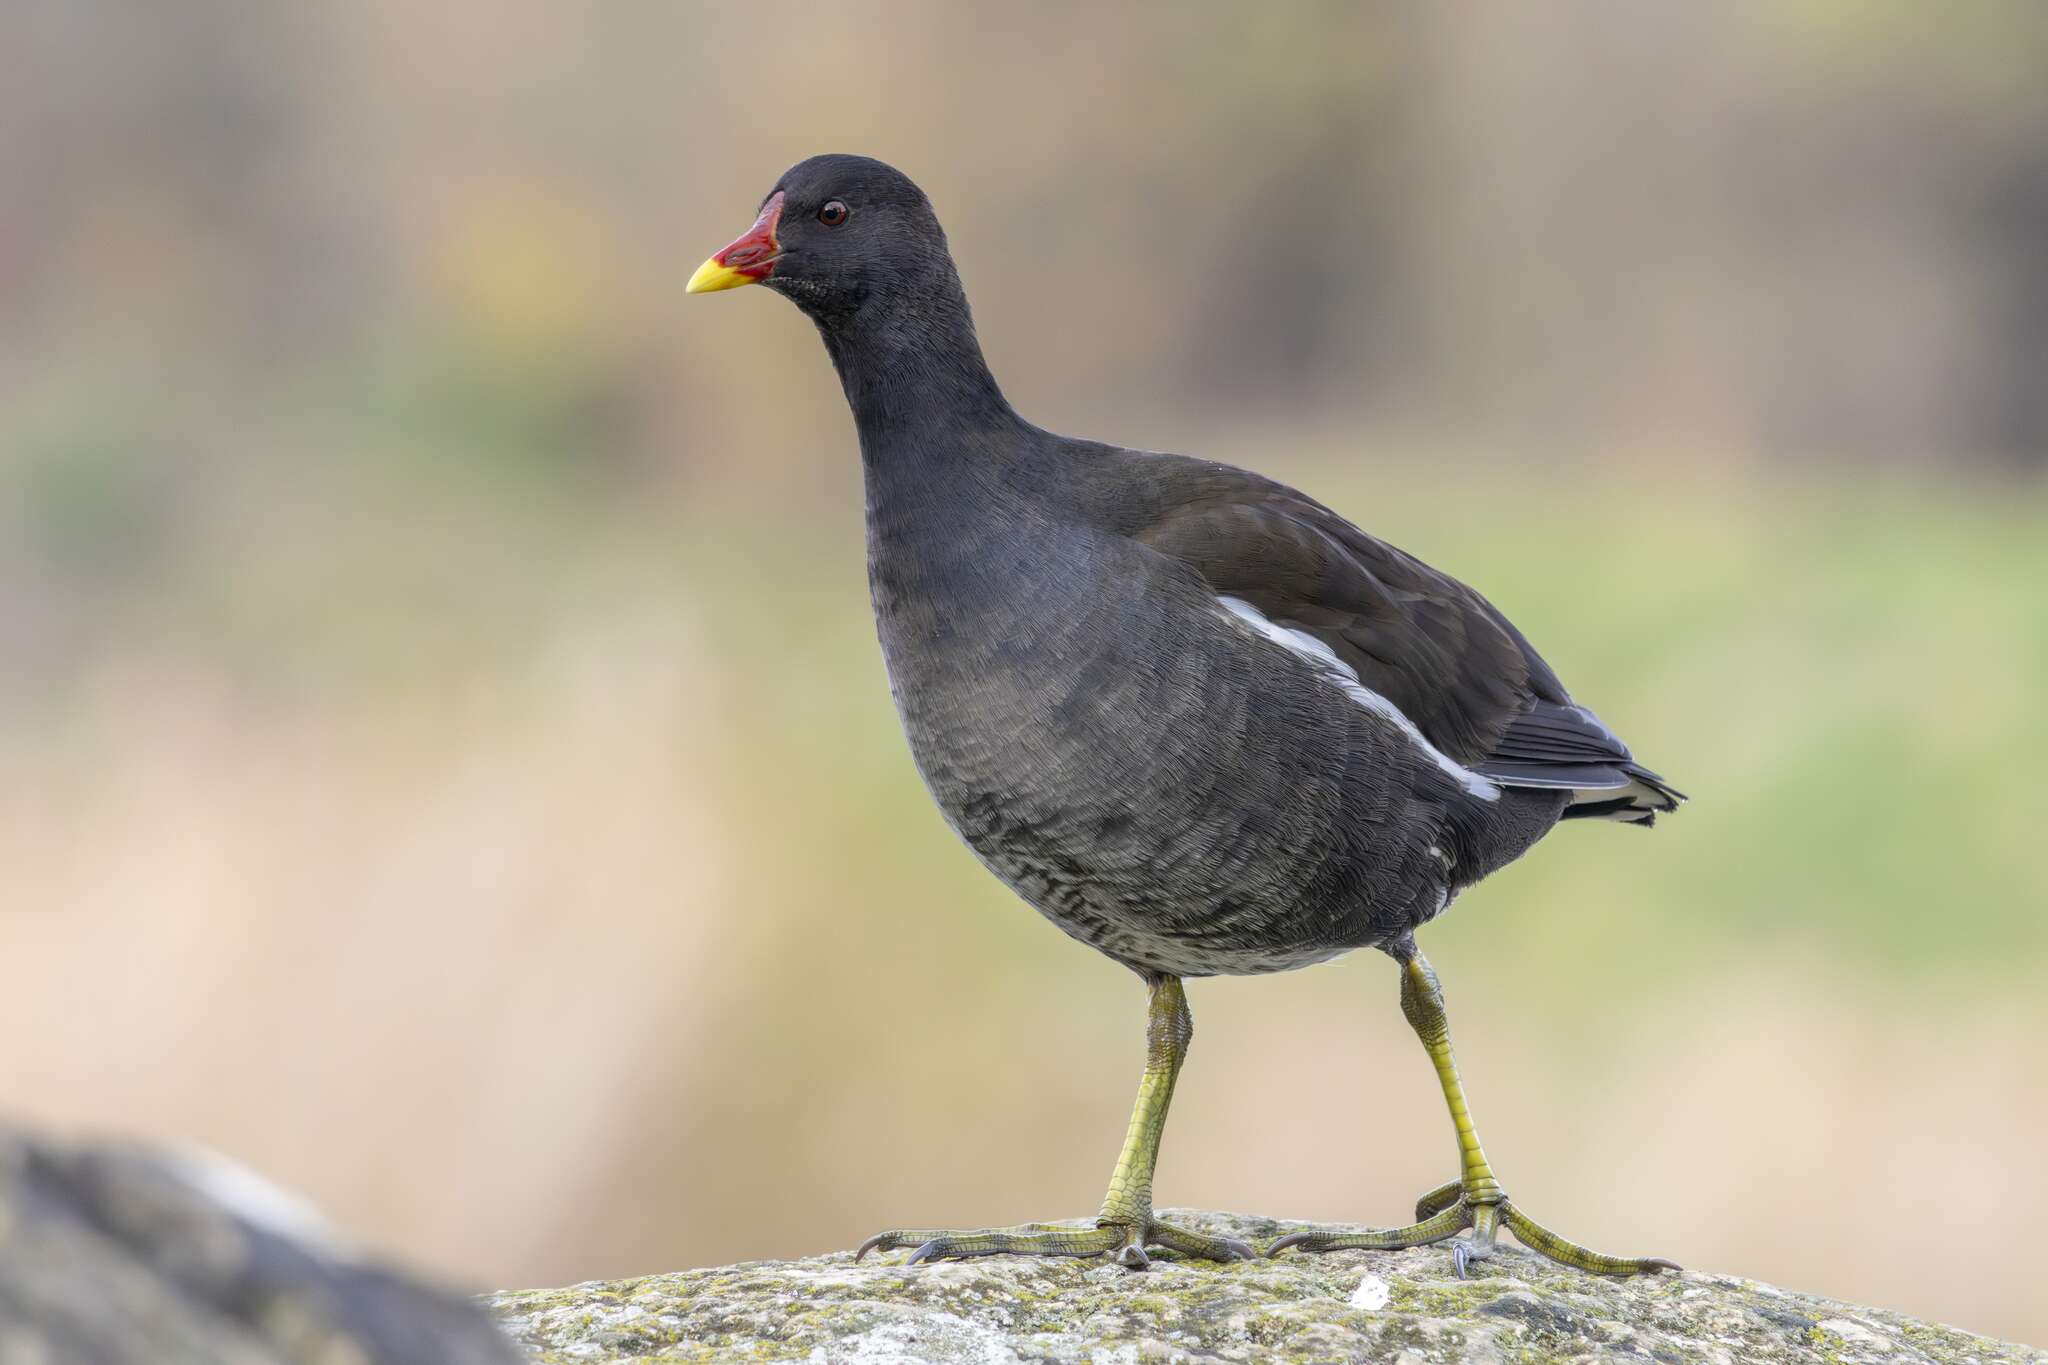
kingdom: Animalia
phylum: Chordata
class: Aves
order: Gruiformes
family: Rallidae
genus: Gallinula
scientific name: Gallinula chloropus
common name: Common moorhen
